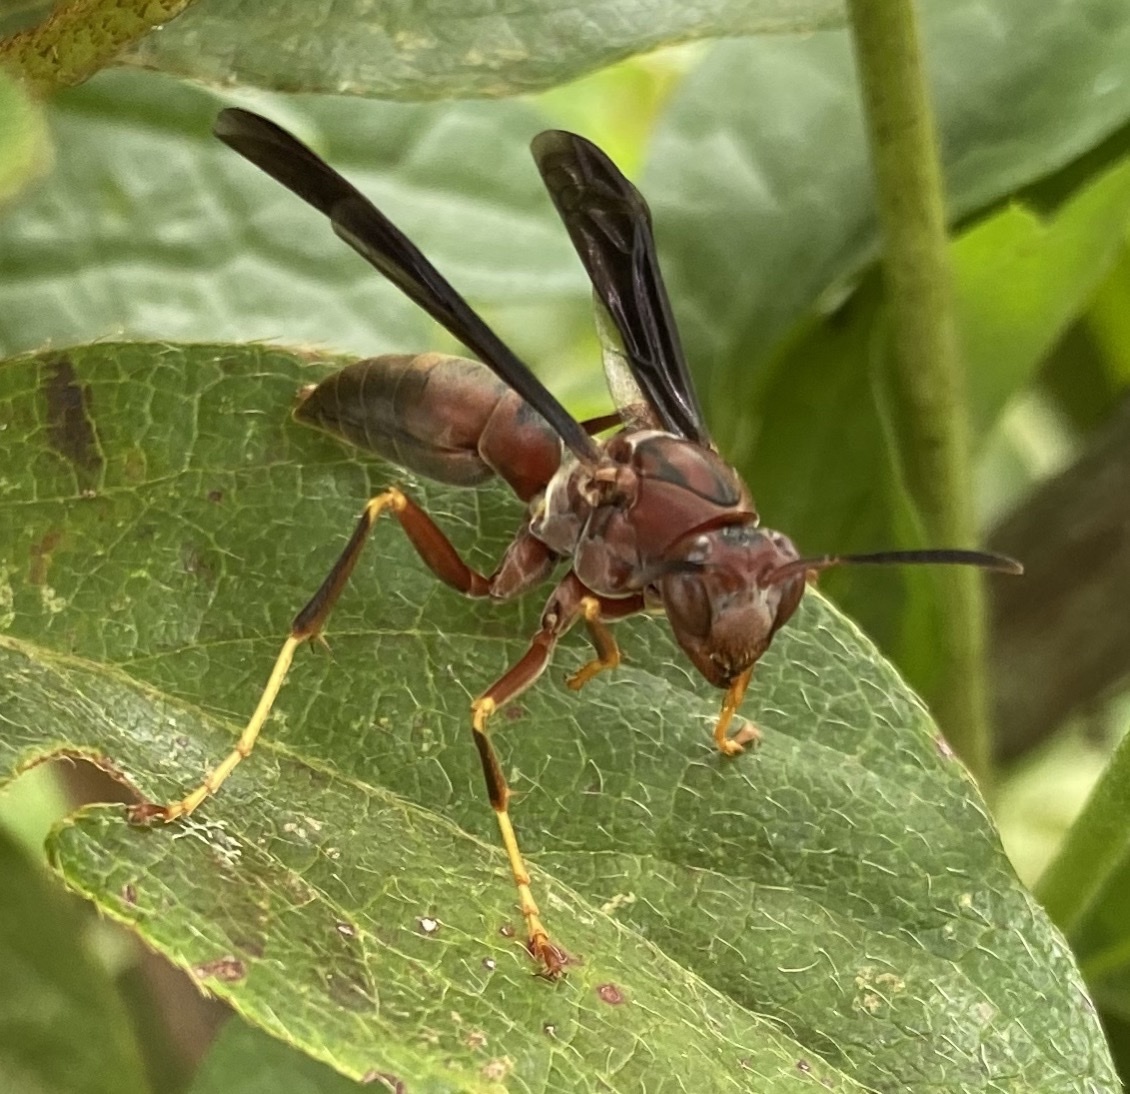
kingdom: Animalia
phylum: Arthropoda
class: Insecta
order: Hymenoptera
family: Eumenidae
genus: Polistes
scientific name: Polistes metricus
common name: Metric paper wasp
